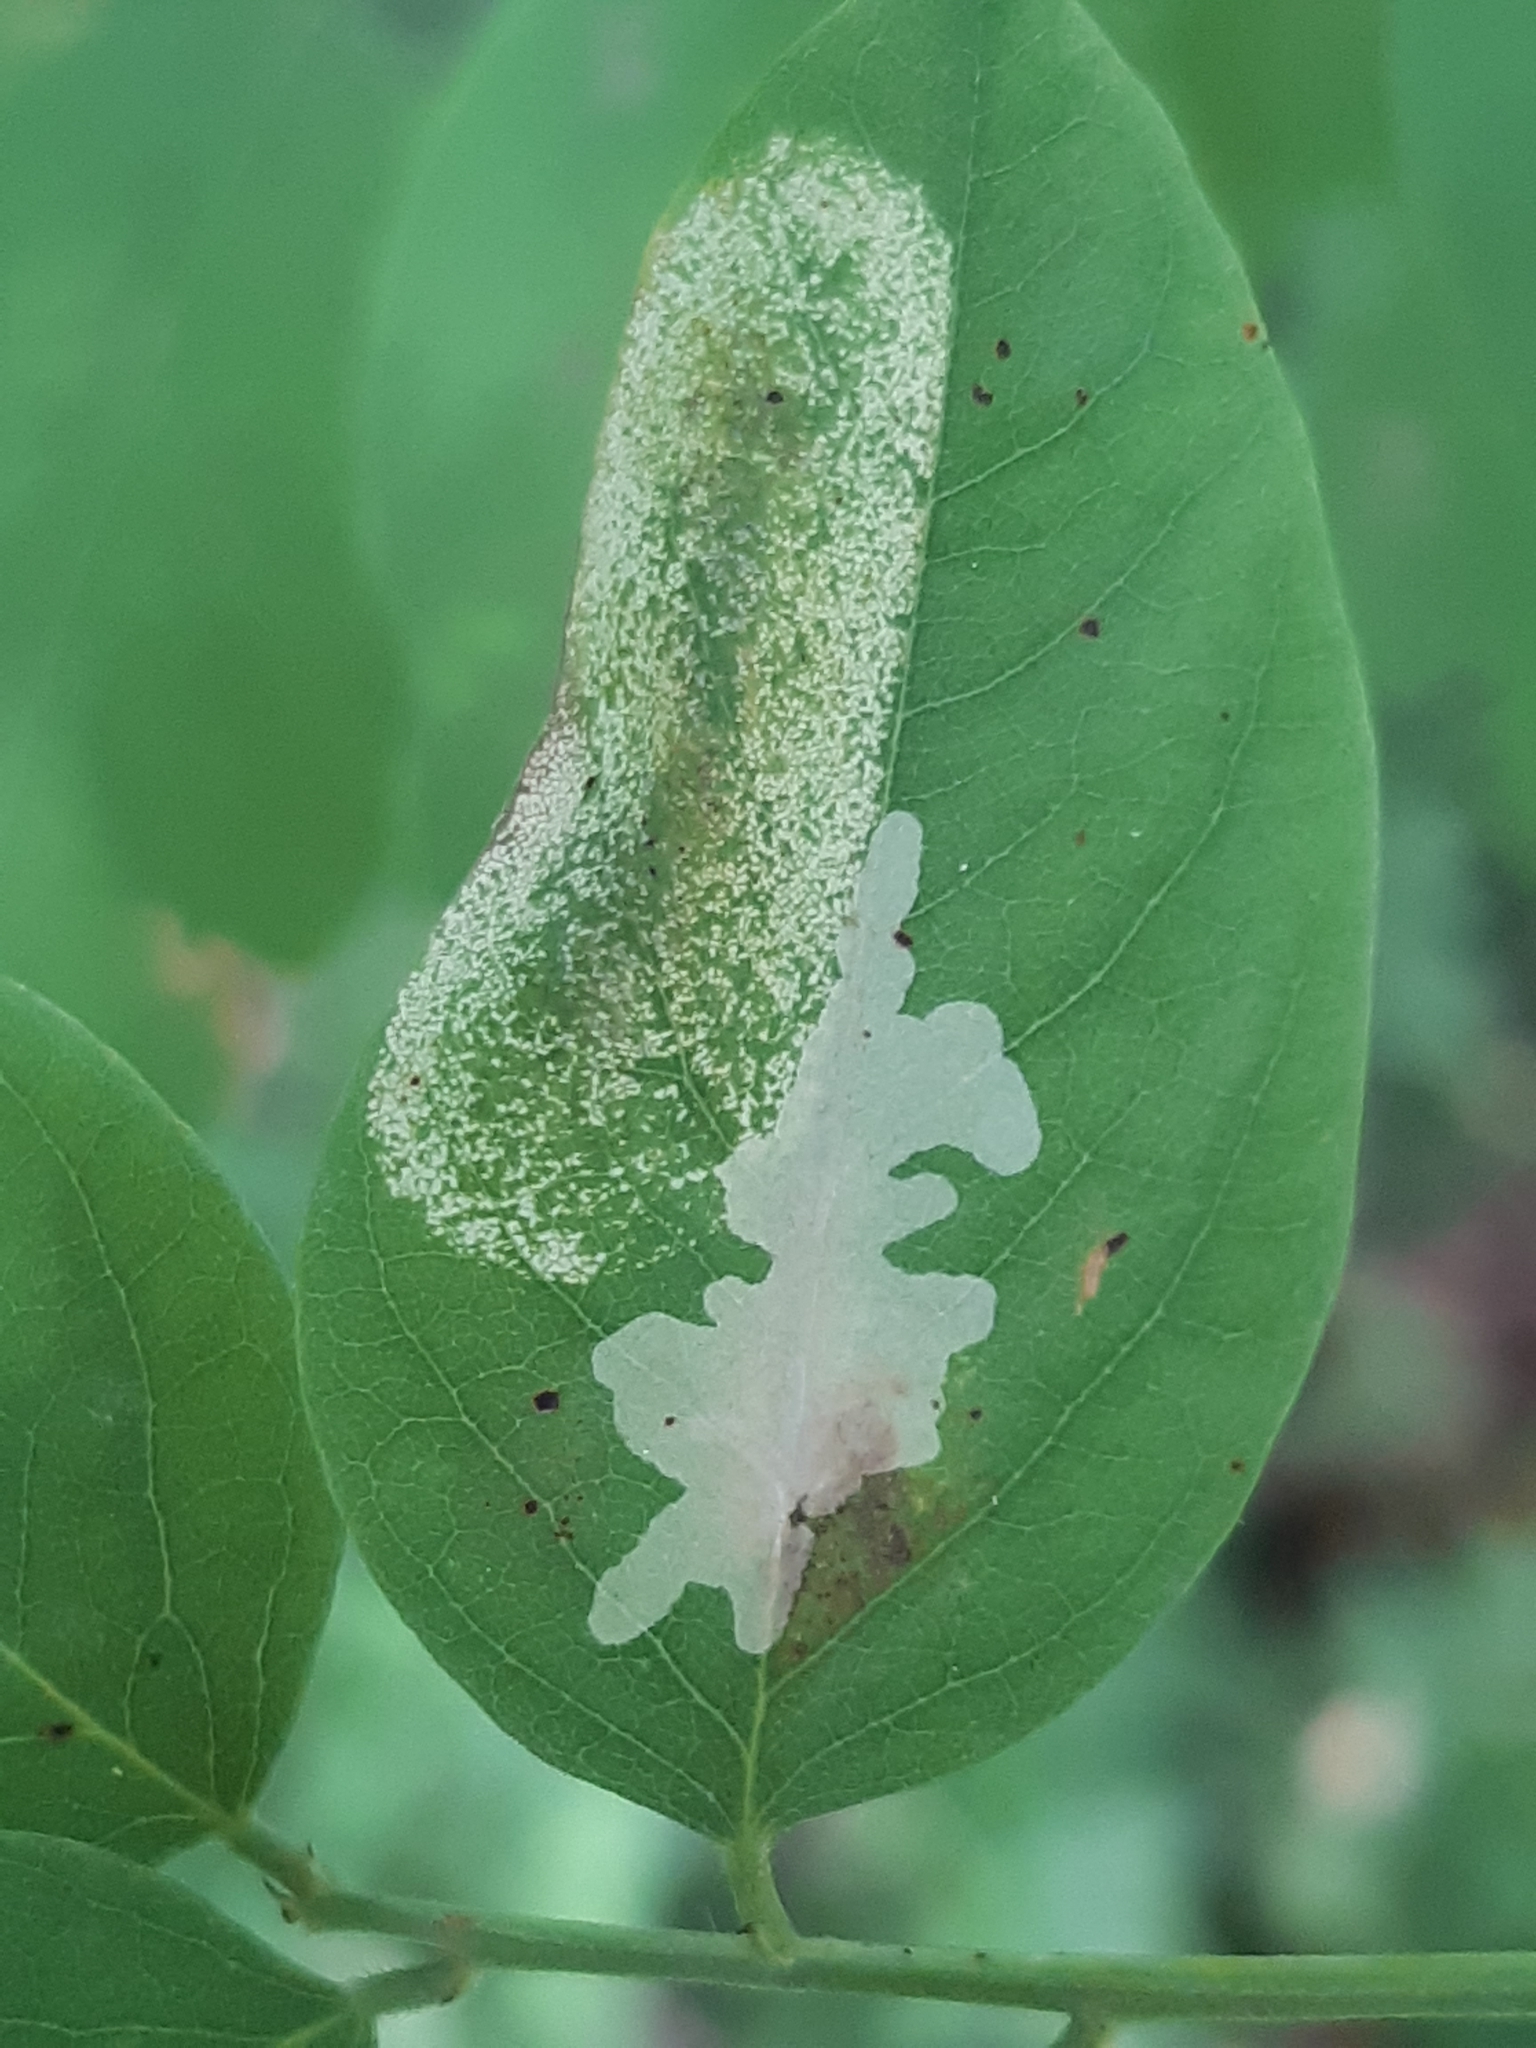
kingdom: Animalia
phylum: Arthropoda
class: Insecta
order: Lepidoptera
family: Gracillariidae
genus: Macrosaccus
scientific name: Macrosaccus robiniella
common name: Leaf blotch miner moth
